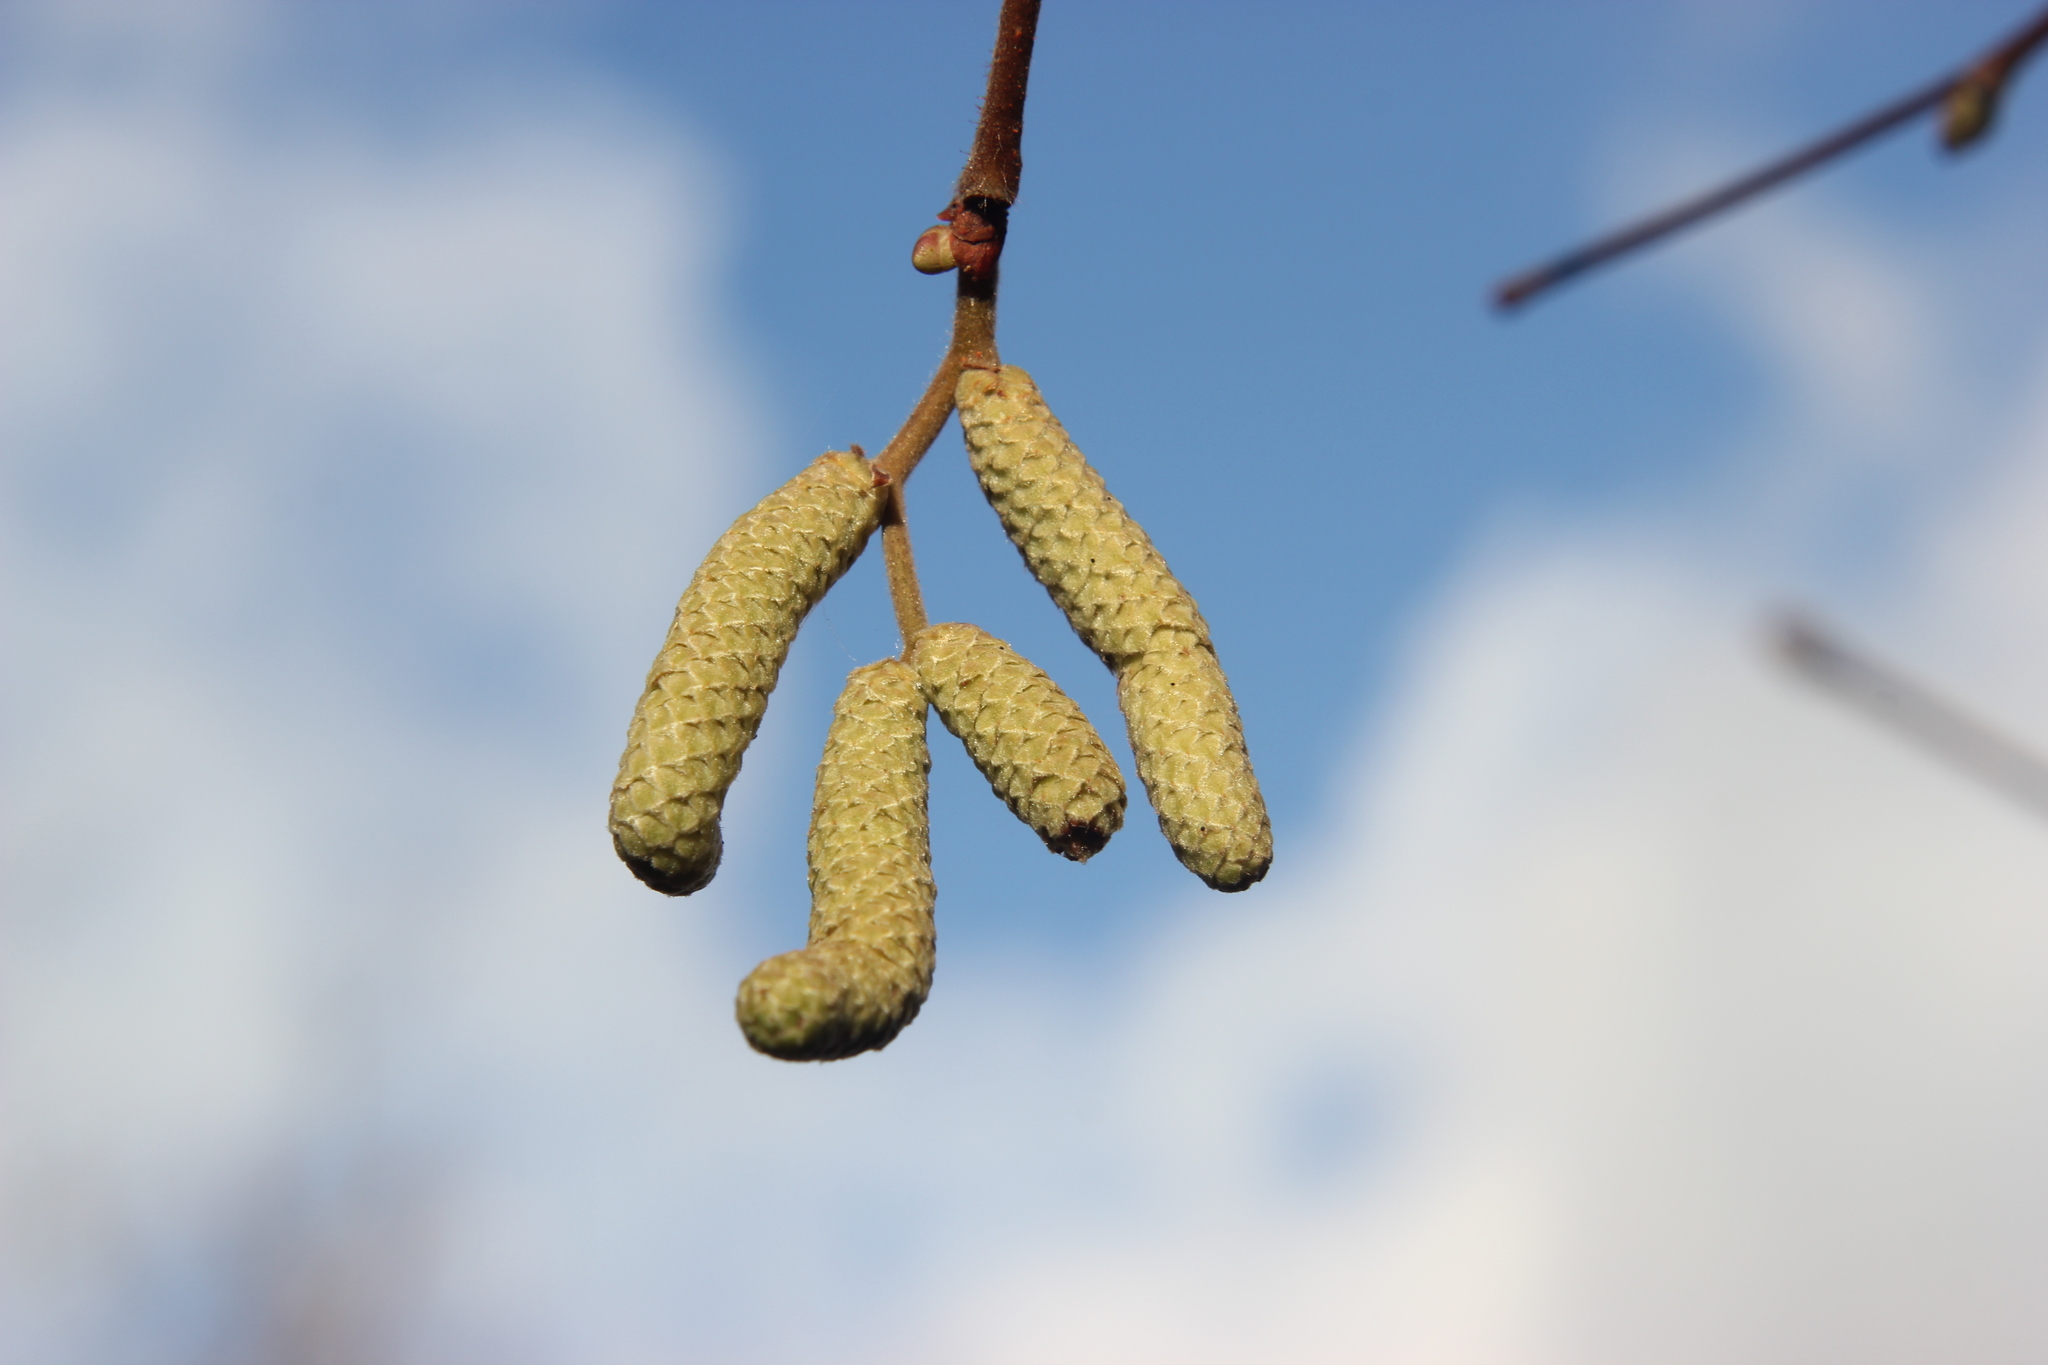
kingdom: Plantae
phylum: Tracheophyta
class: Magnoliopsida
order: Fagales
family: Betulaceae
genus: Corylus
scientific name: Corylus avellana
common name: European hazel
